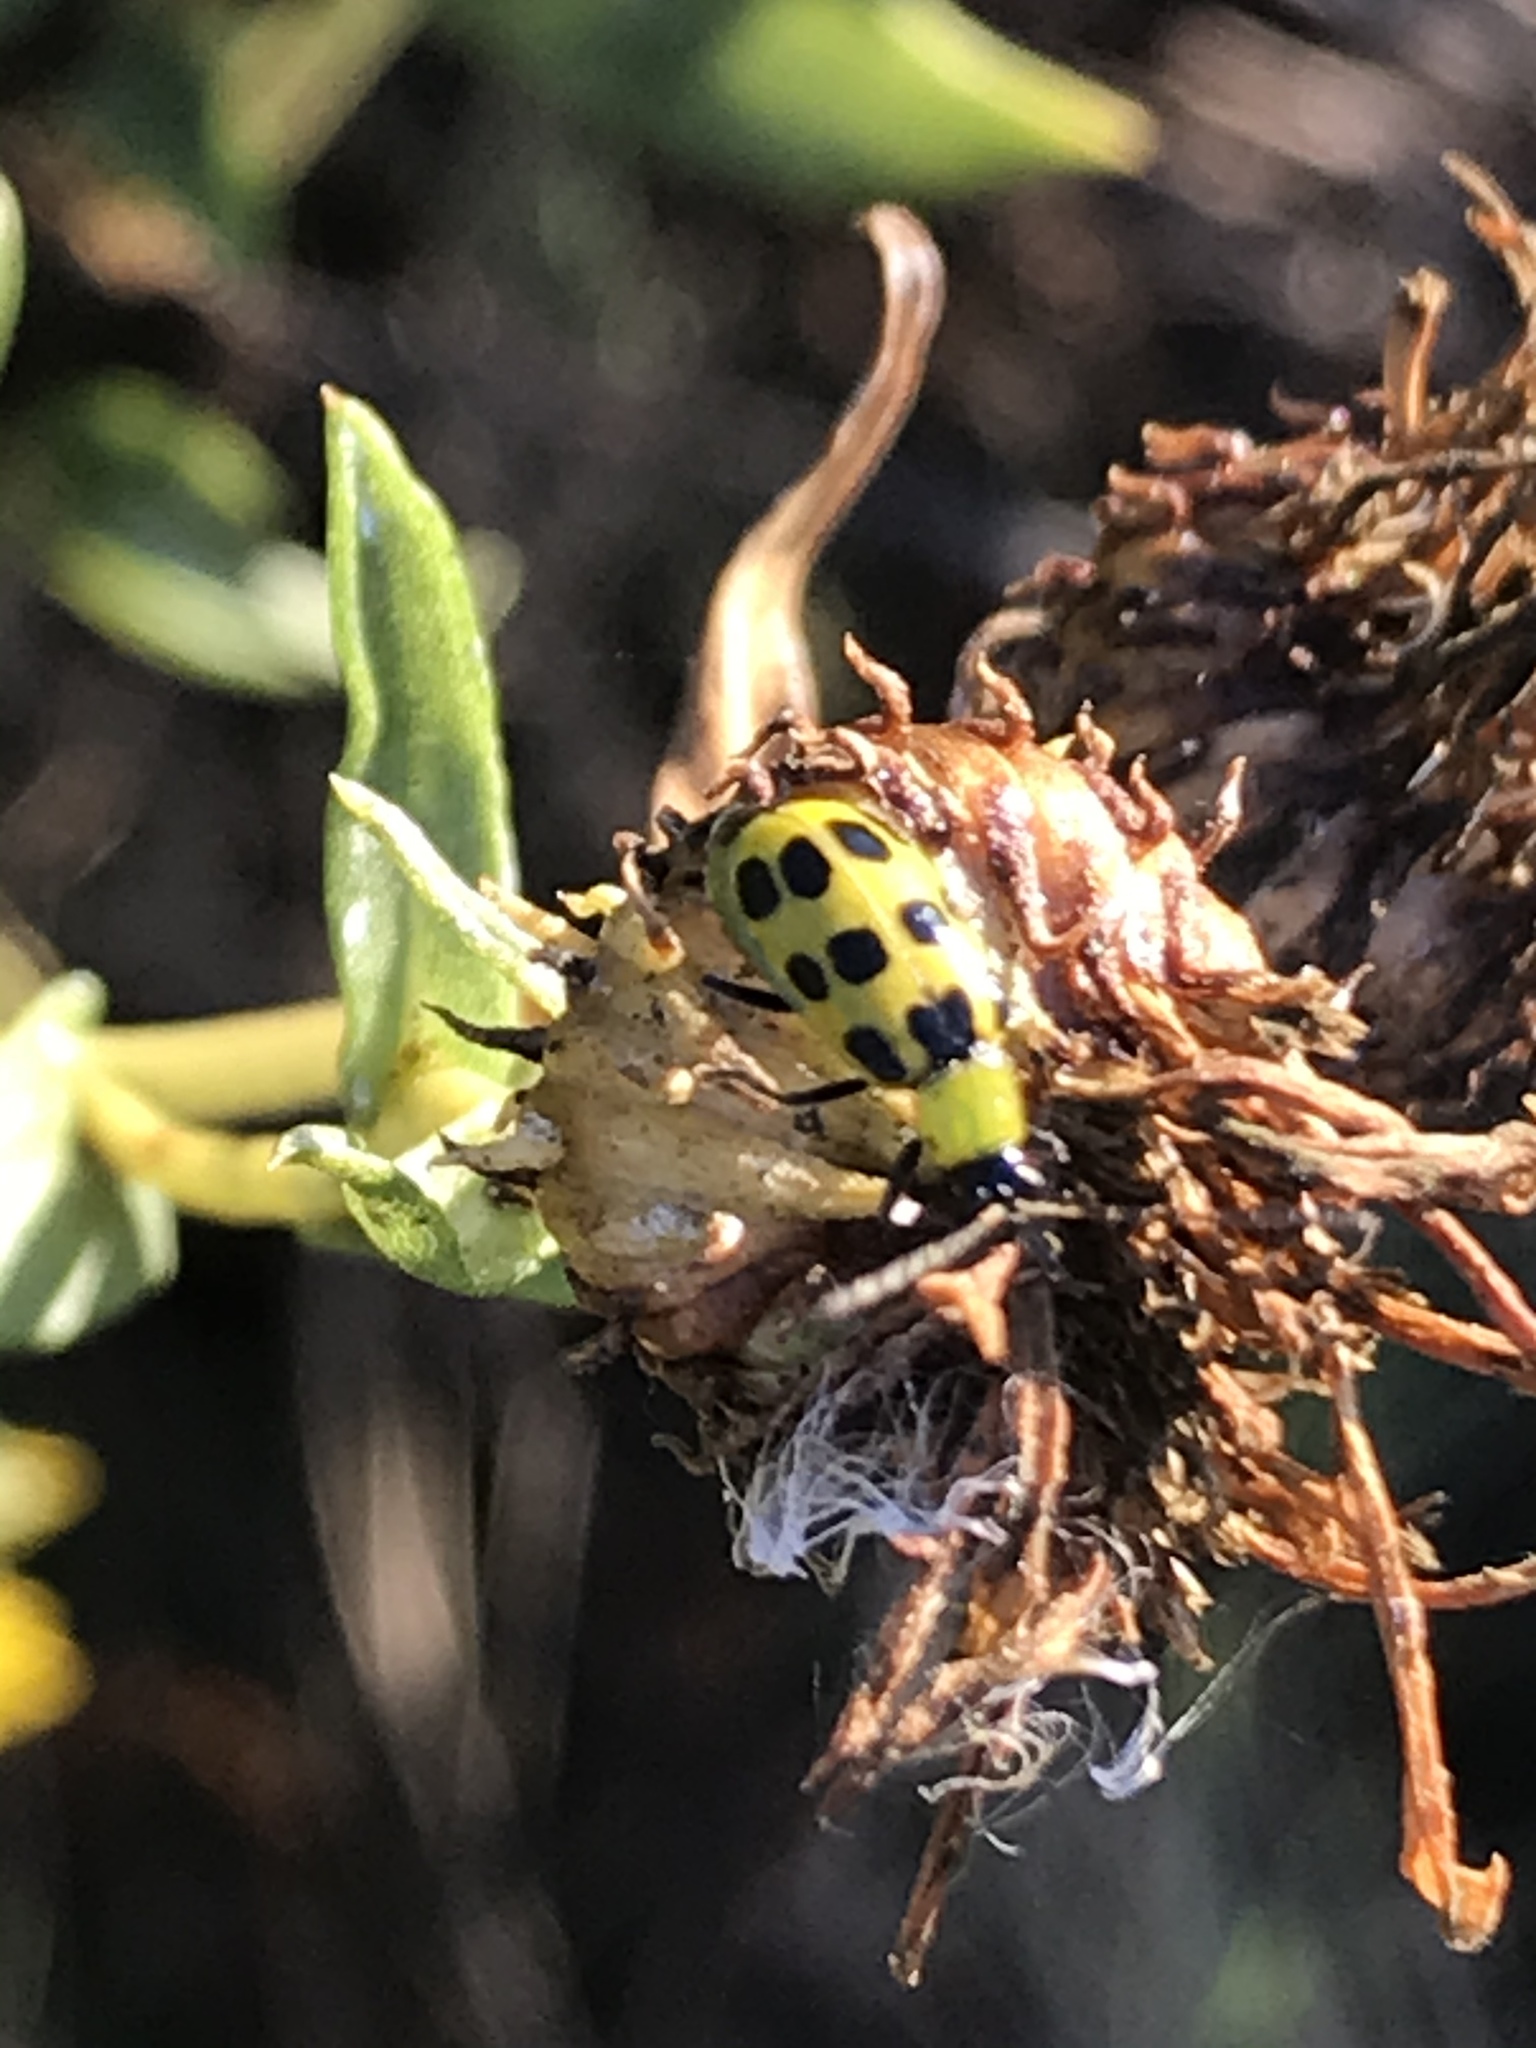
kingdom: Animalia
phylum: Arthropoda
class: Insecta
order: Coleoptera
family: Chrysomelidae
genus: Diabrotica
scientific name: Diabrotica undecimpunctata
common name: Spotted cucumber beetle
